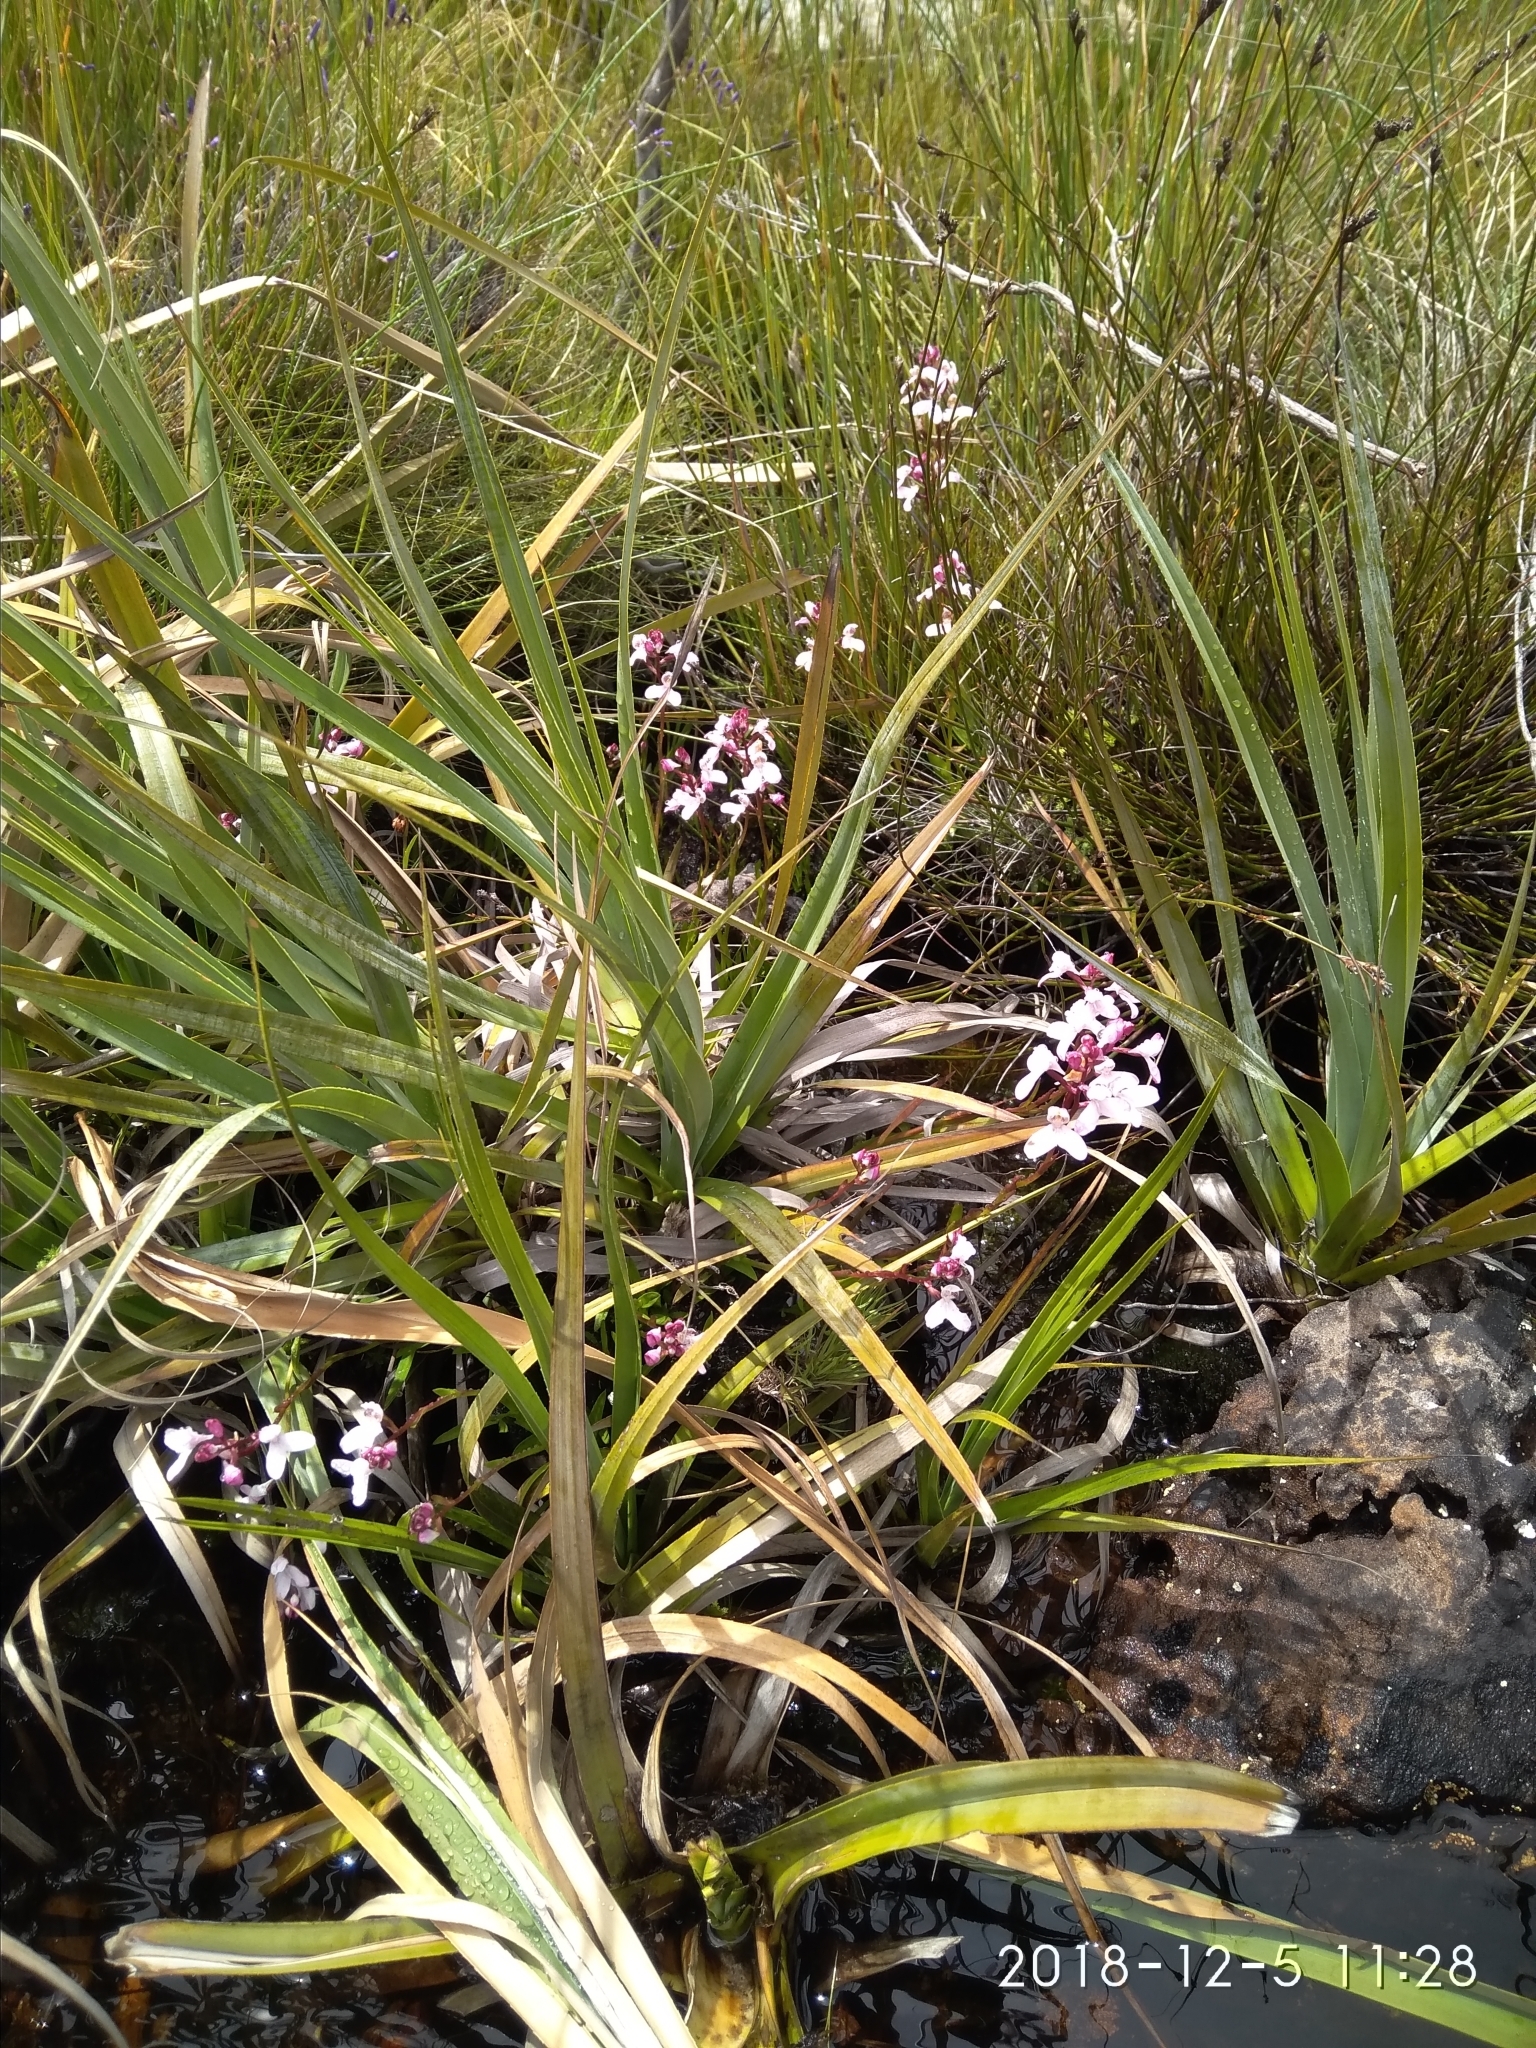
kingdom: Plantae
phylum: Tracheophyta
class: Liliopsida
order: Asparagales
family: Orchidaceae
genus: Disa
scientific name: Disa caulescens
